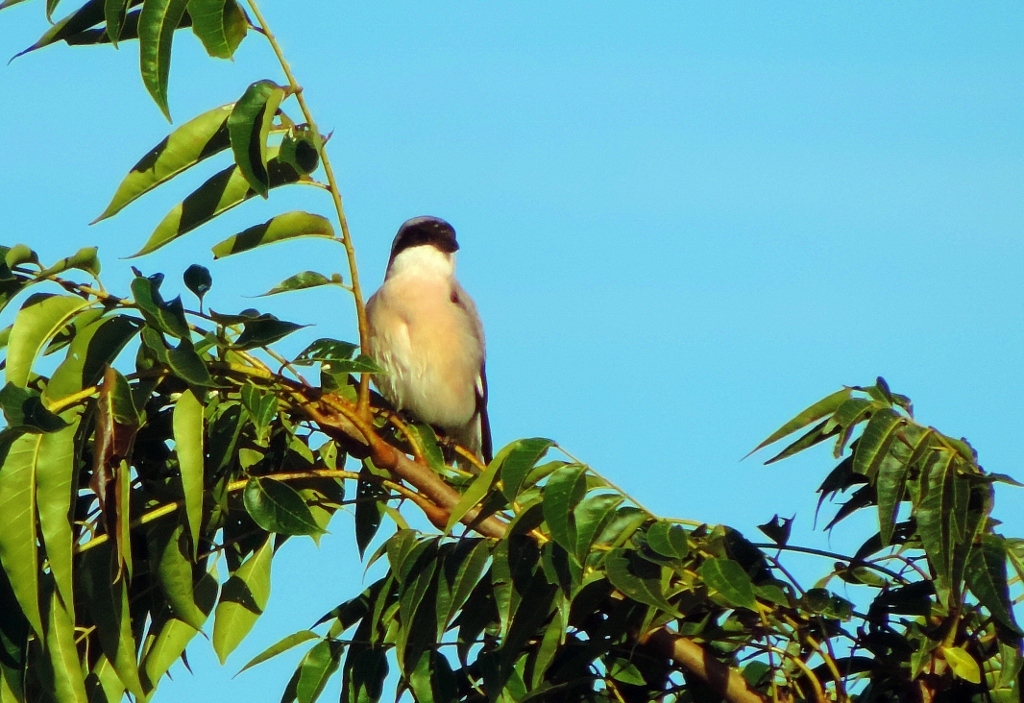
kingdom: Animalia
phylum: Chordata
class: Aves
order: Passeriformes
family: Laniidae
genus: Lanius
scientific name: Lanius minor
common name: Lesser grey shrike
